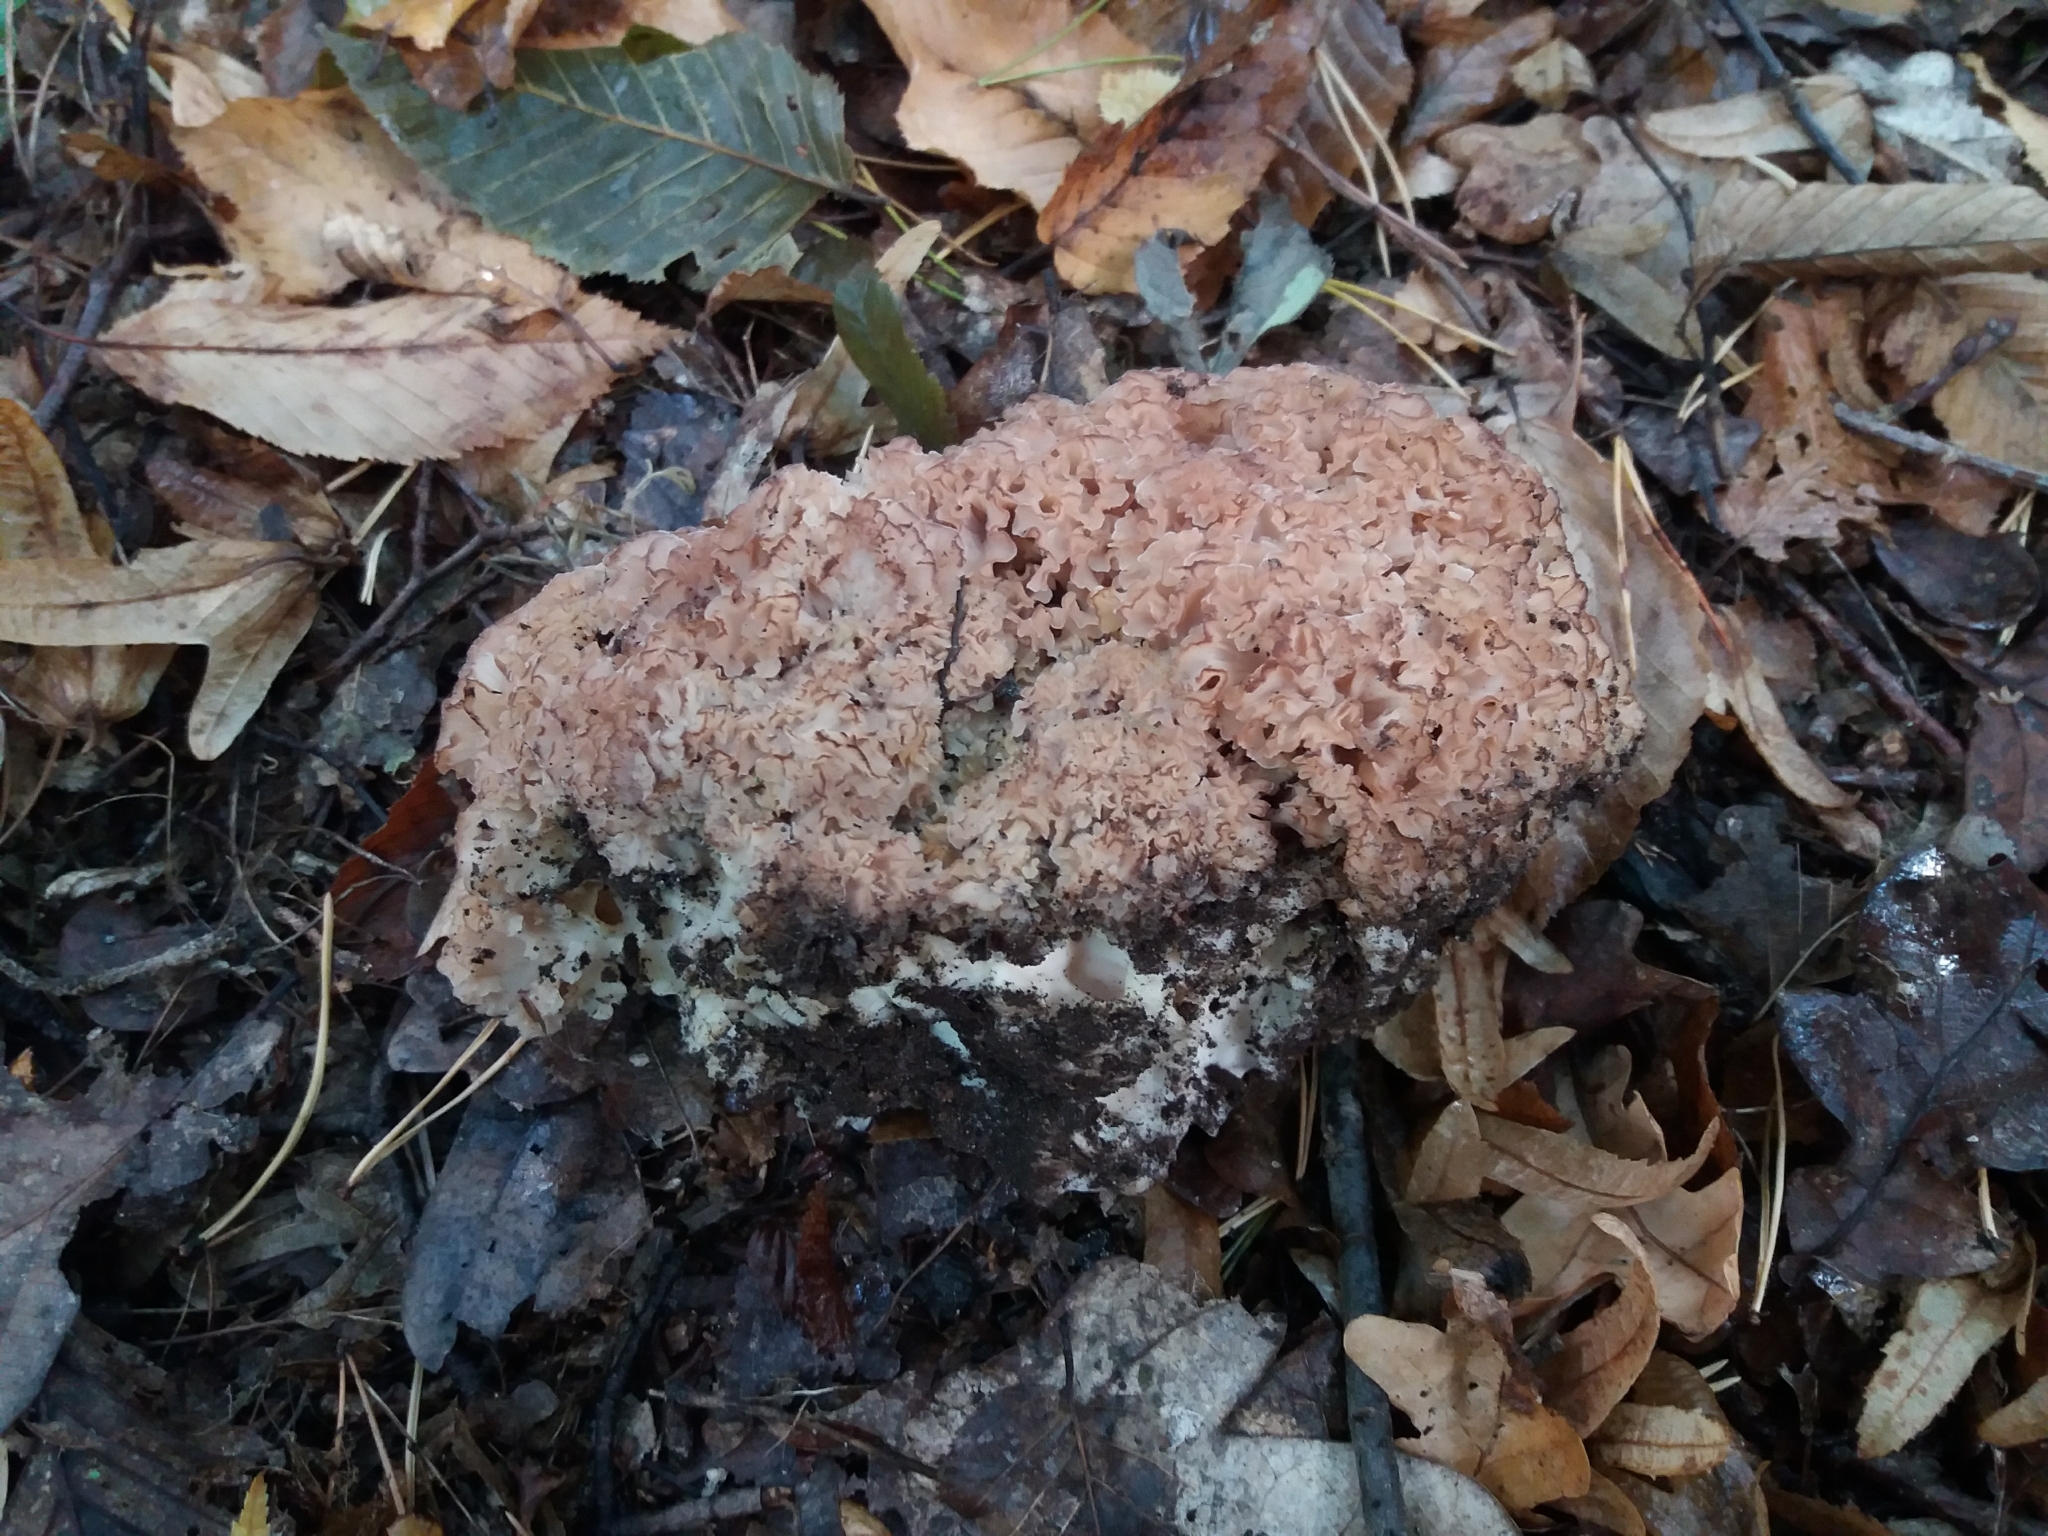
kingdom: Fungi
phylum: Basidiomycota
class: Agaricomycetes
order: Polyporales
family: Sparassidaceae
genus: Sparassis
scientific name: Sparassis crispa
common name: Brain fungus
